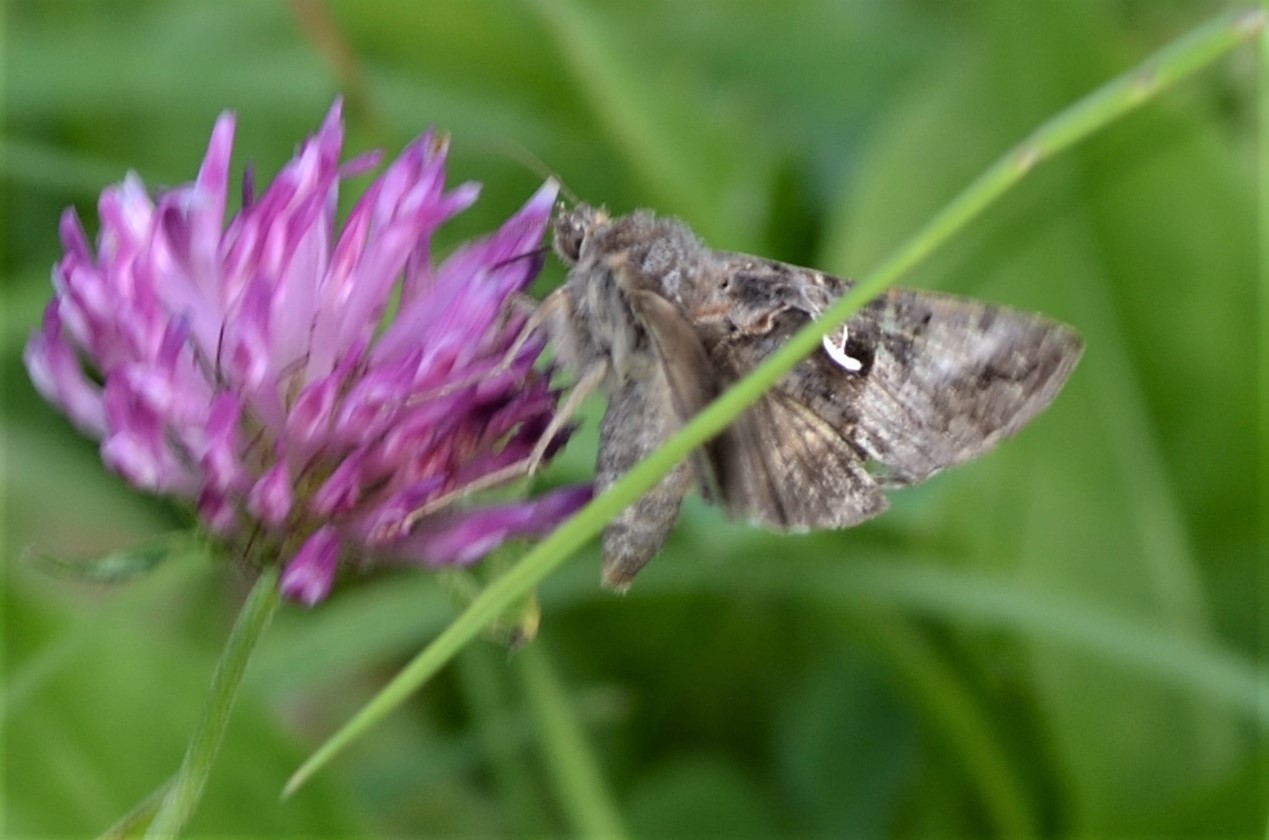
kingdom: Animalia
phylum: Arthropoda
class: Insecta
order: Lepidoptera
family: Noctuidae
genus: Autographa
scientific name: Autographa gamma
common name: Silver y
